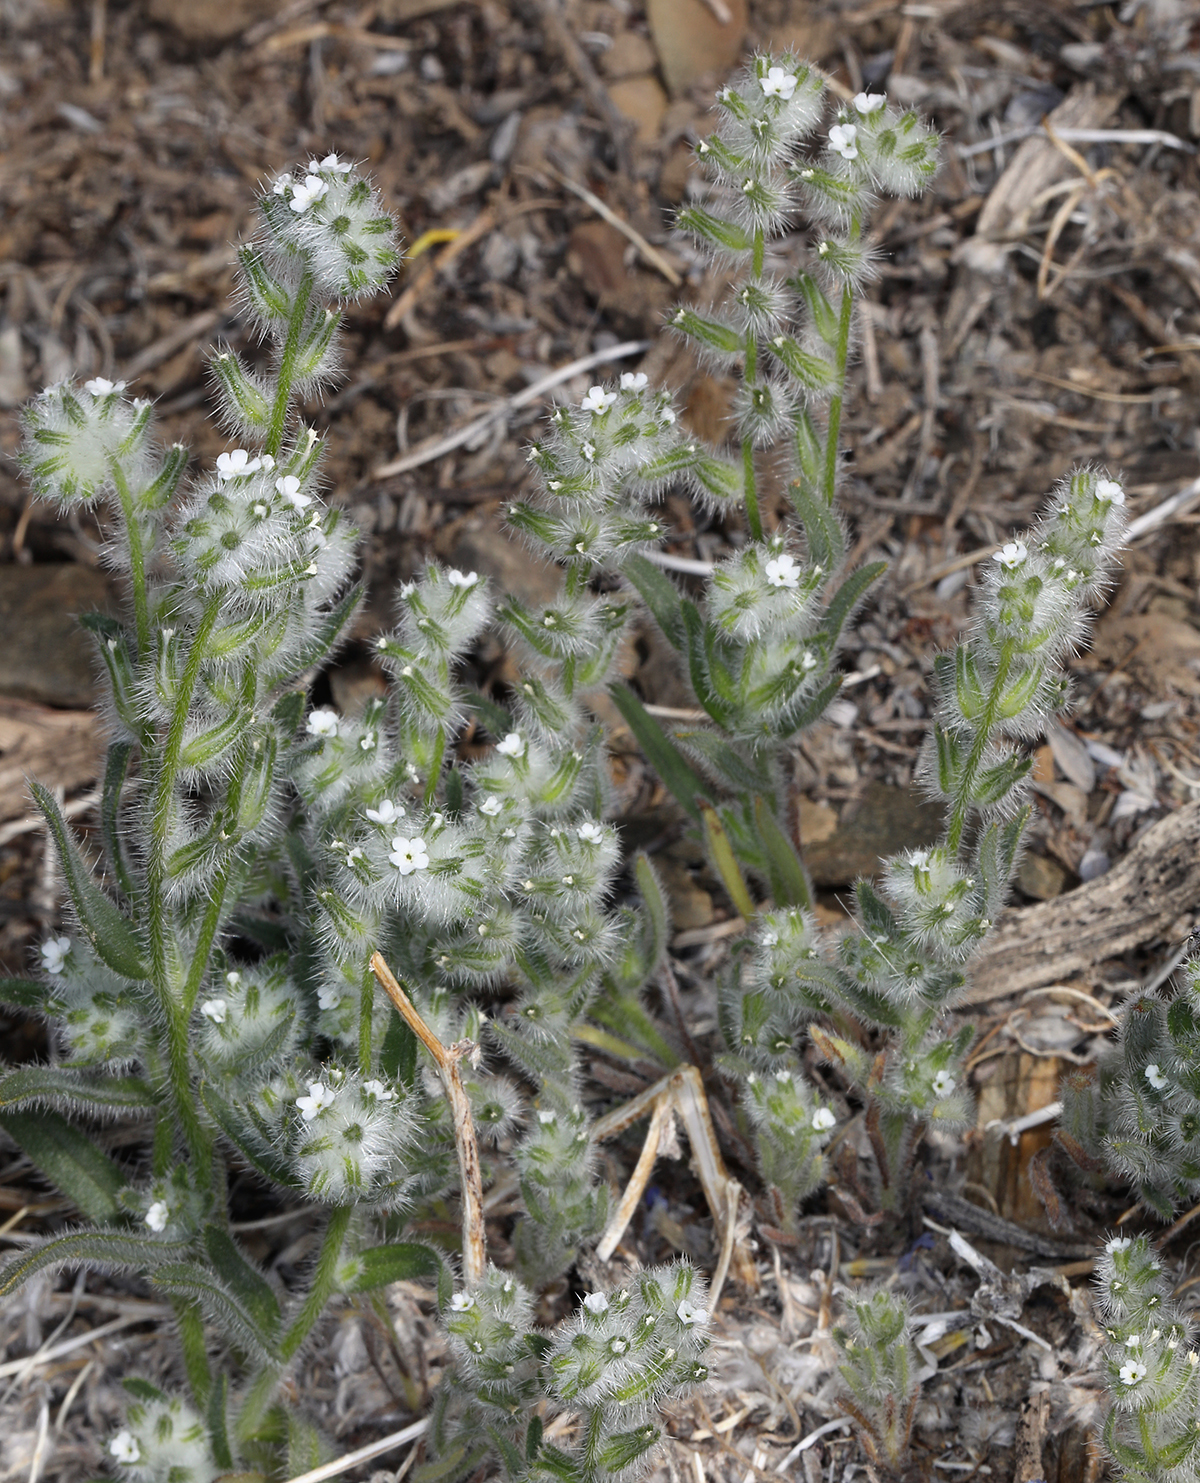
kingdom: Plantae
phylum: Tracheophyta
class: Magnoliopsida
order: Boraginales
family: Boraginaceae
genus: Cryptantha
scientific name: Cryptantha barbigera
